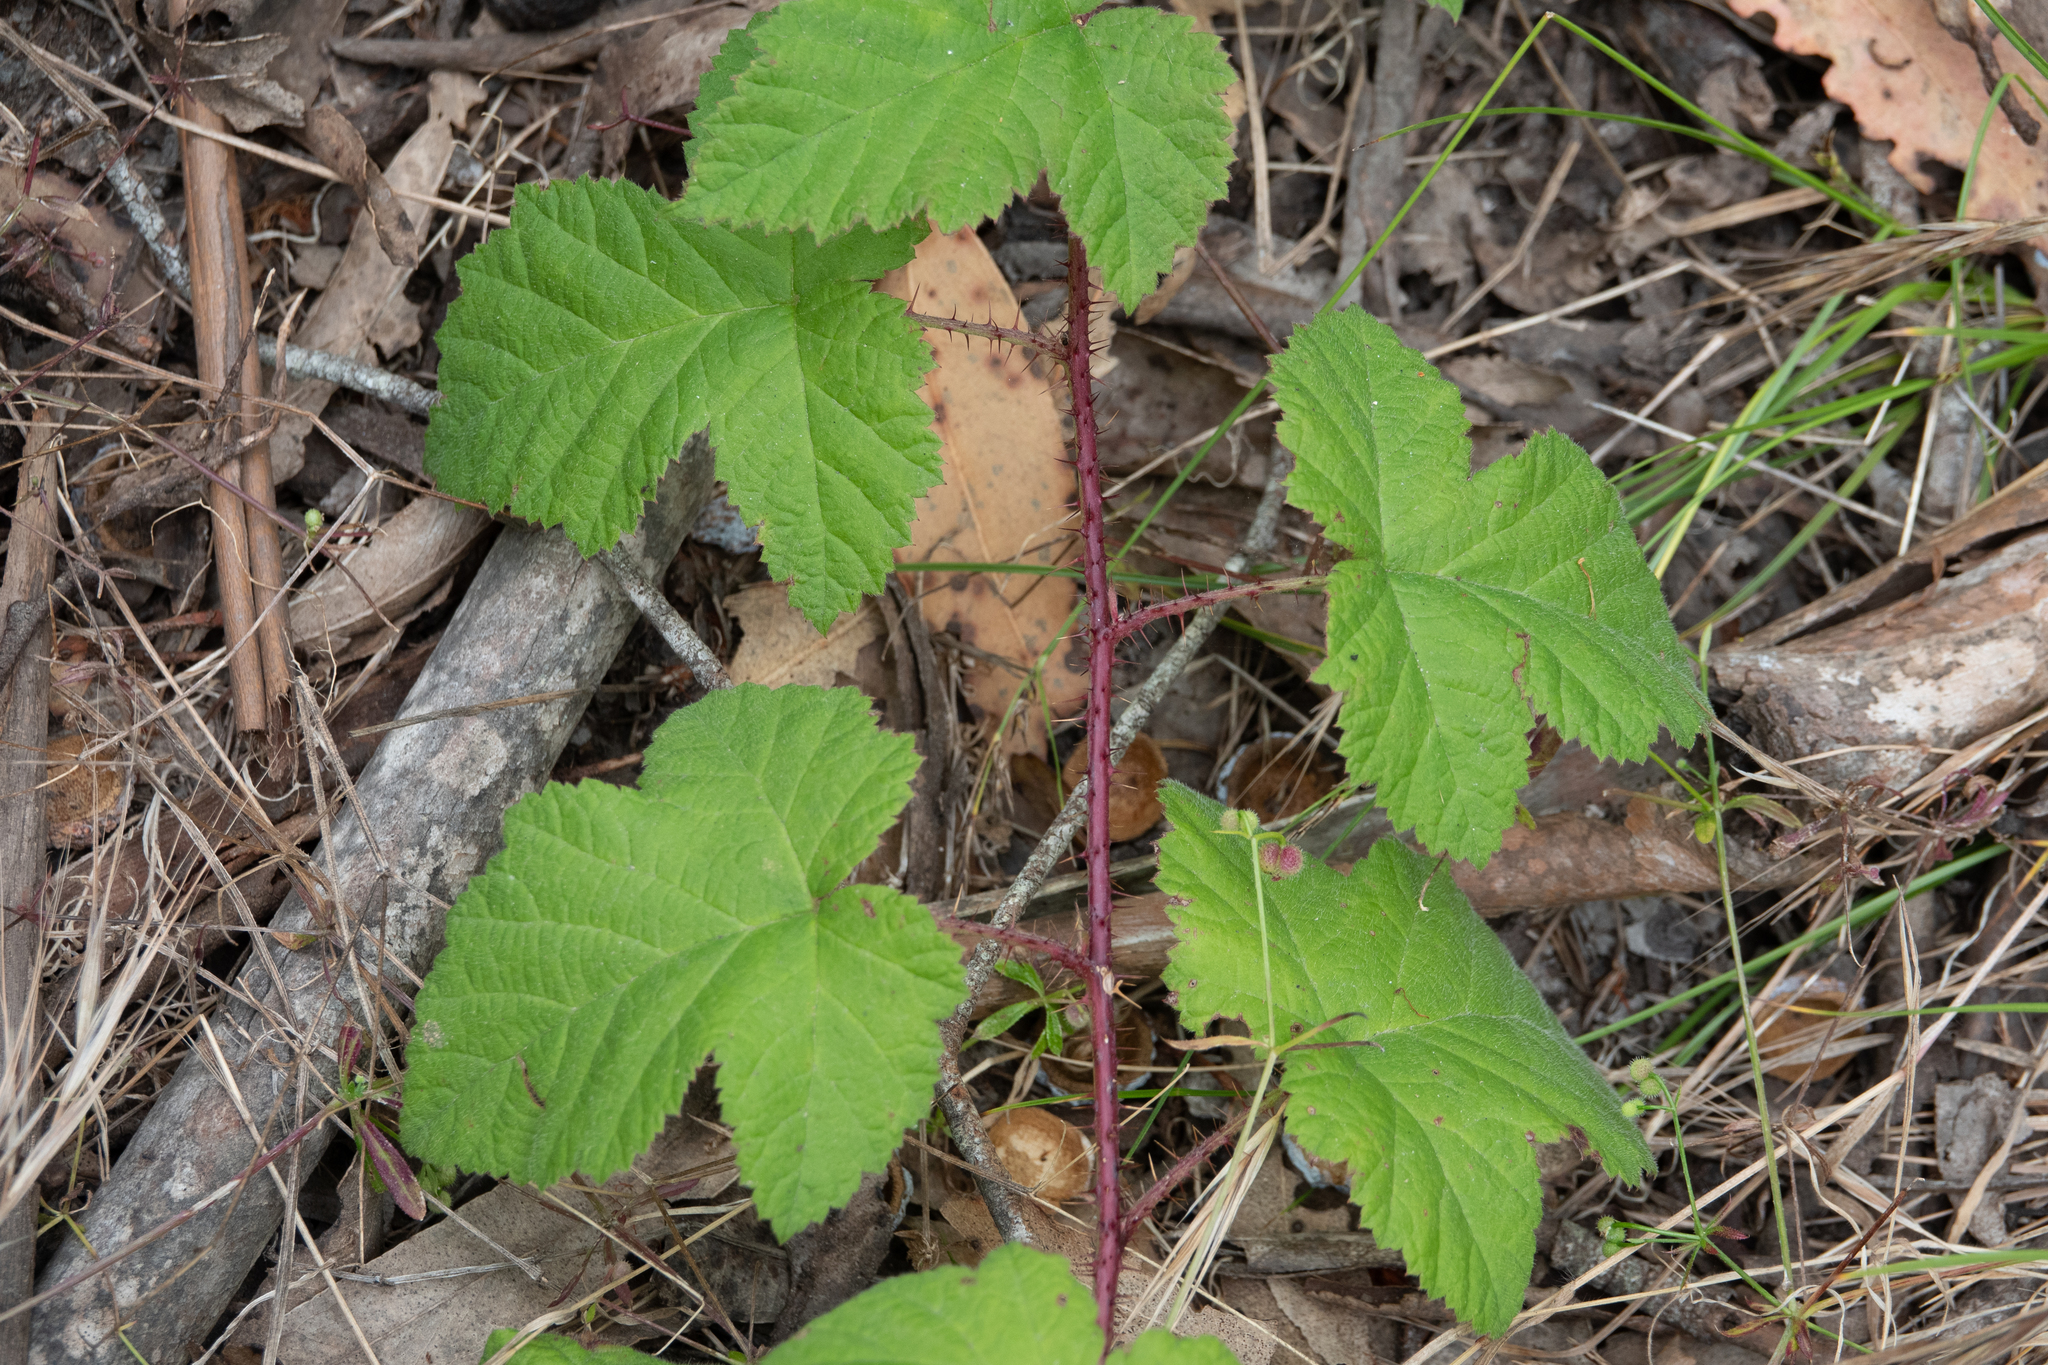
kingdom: Plantae
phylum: Tracheophyta
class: Magnoliopsida
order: Rosales
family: Rosaceae
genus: Rubus
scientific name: Rubus ursinus
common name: Pacific blackberry
